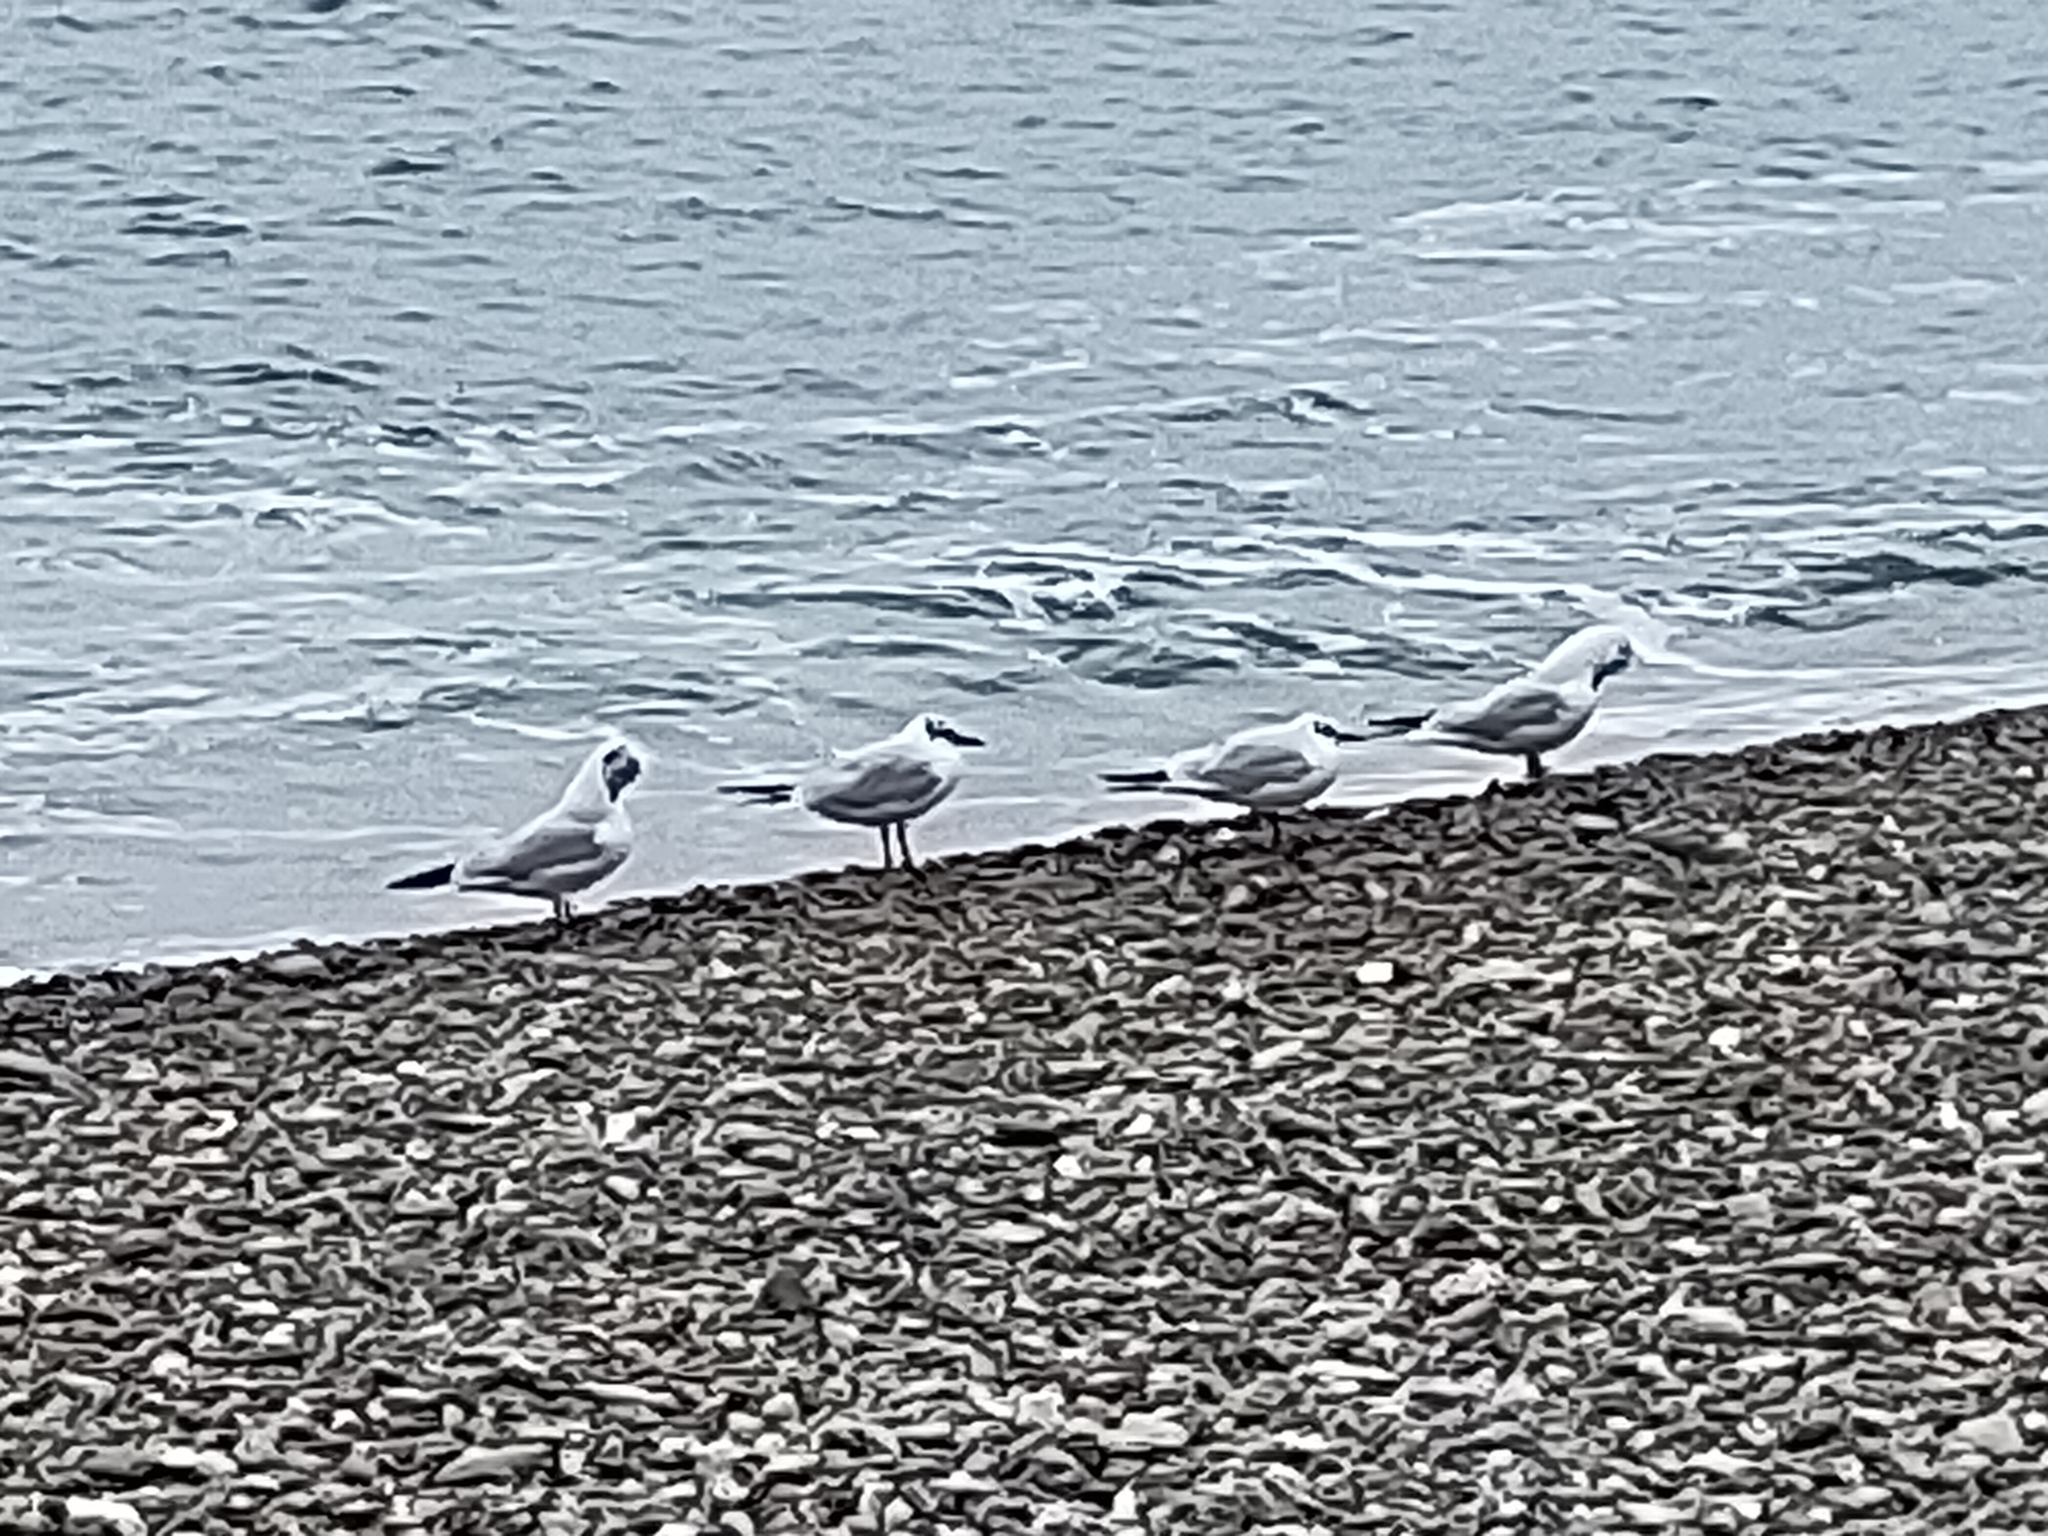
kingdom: Animalia
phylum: Chordata
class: Aves
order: Charadriiformes
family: Laridae
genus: Chroicocephalus
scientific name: Chroicocephalus ridibundus
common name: Black-headed gull
